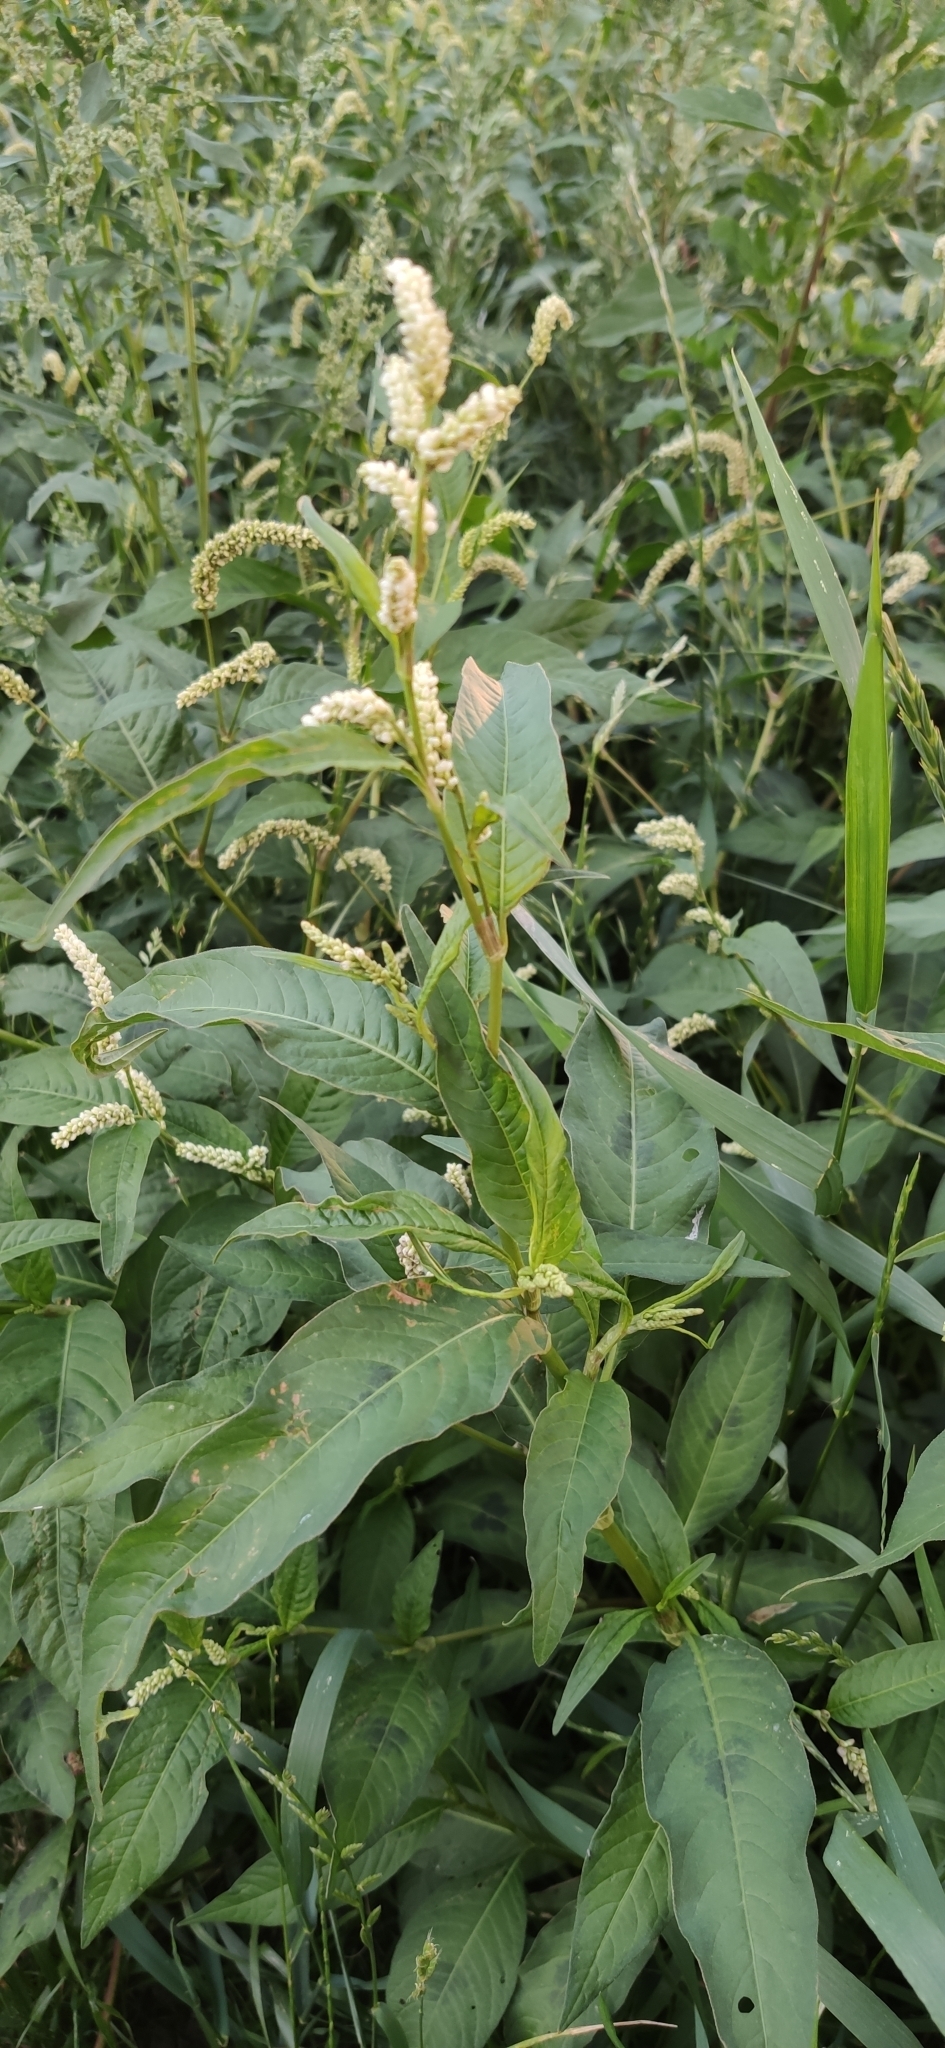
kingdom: Plantae
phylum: Tracheophyta
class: Magnoliopsida
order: Caryophyllales
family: Polygonaceae
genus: Persicaria
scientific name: Persicaria lapathifolia
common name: Curlytop knotweed
